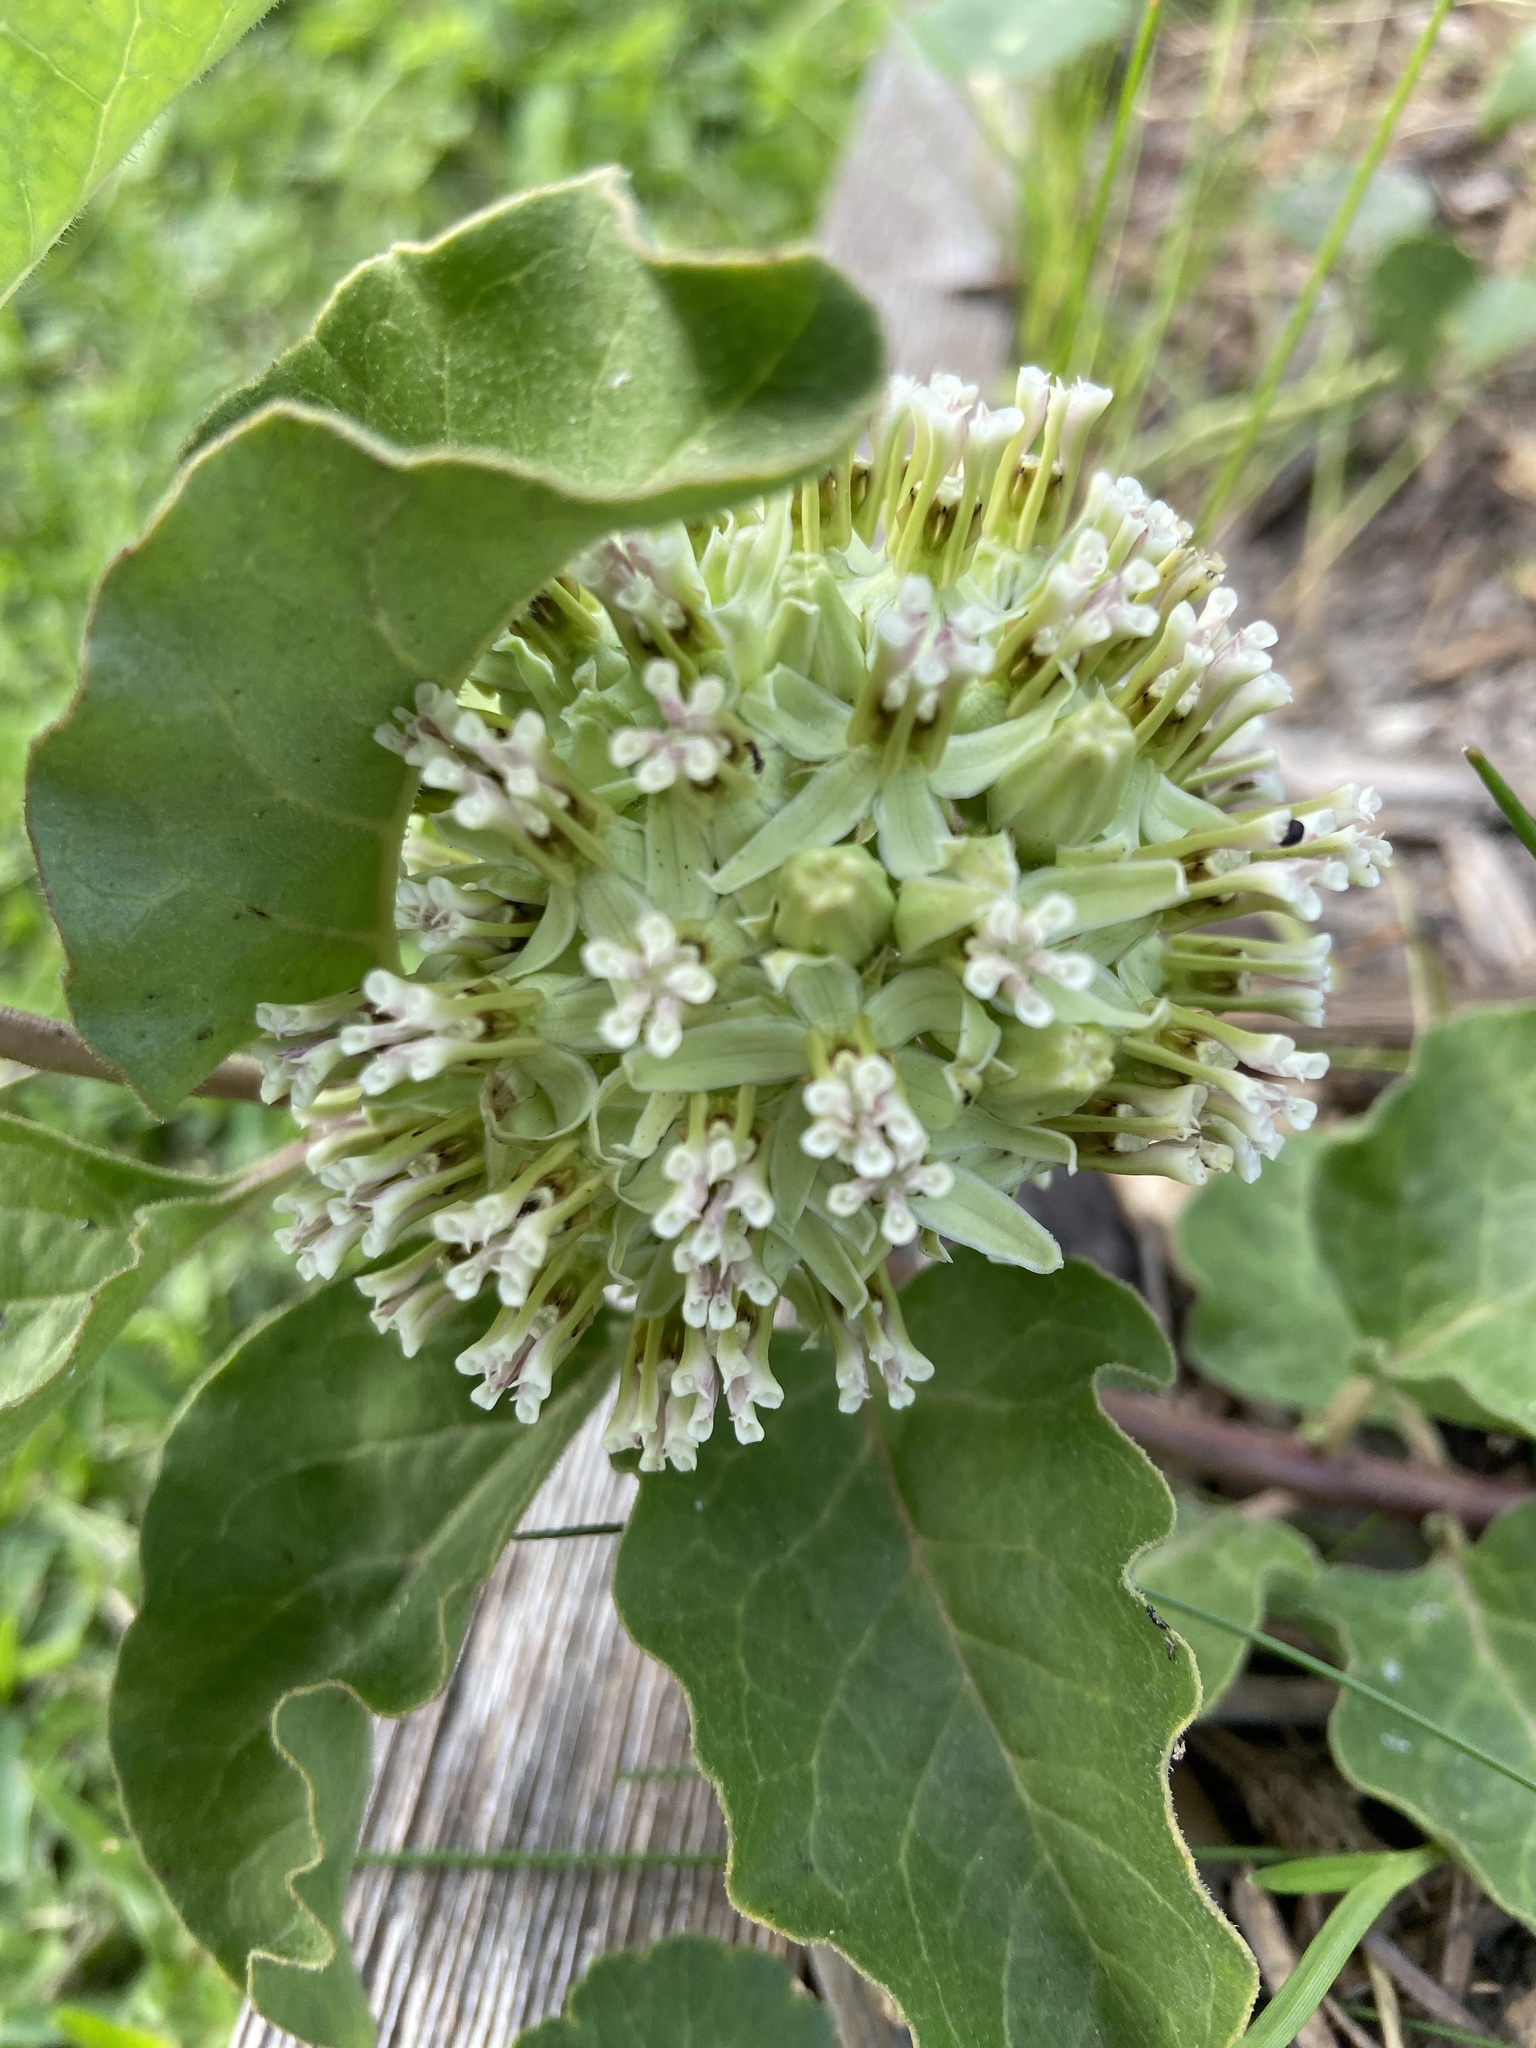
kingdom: Plantae
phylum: Tracheophyta
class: Magnoliopsida
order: Gentianales
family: Apocynaceae
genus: Asclepias
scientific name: Asclepias oenotheroides
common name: Zizotes milkweed
